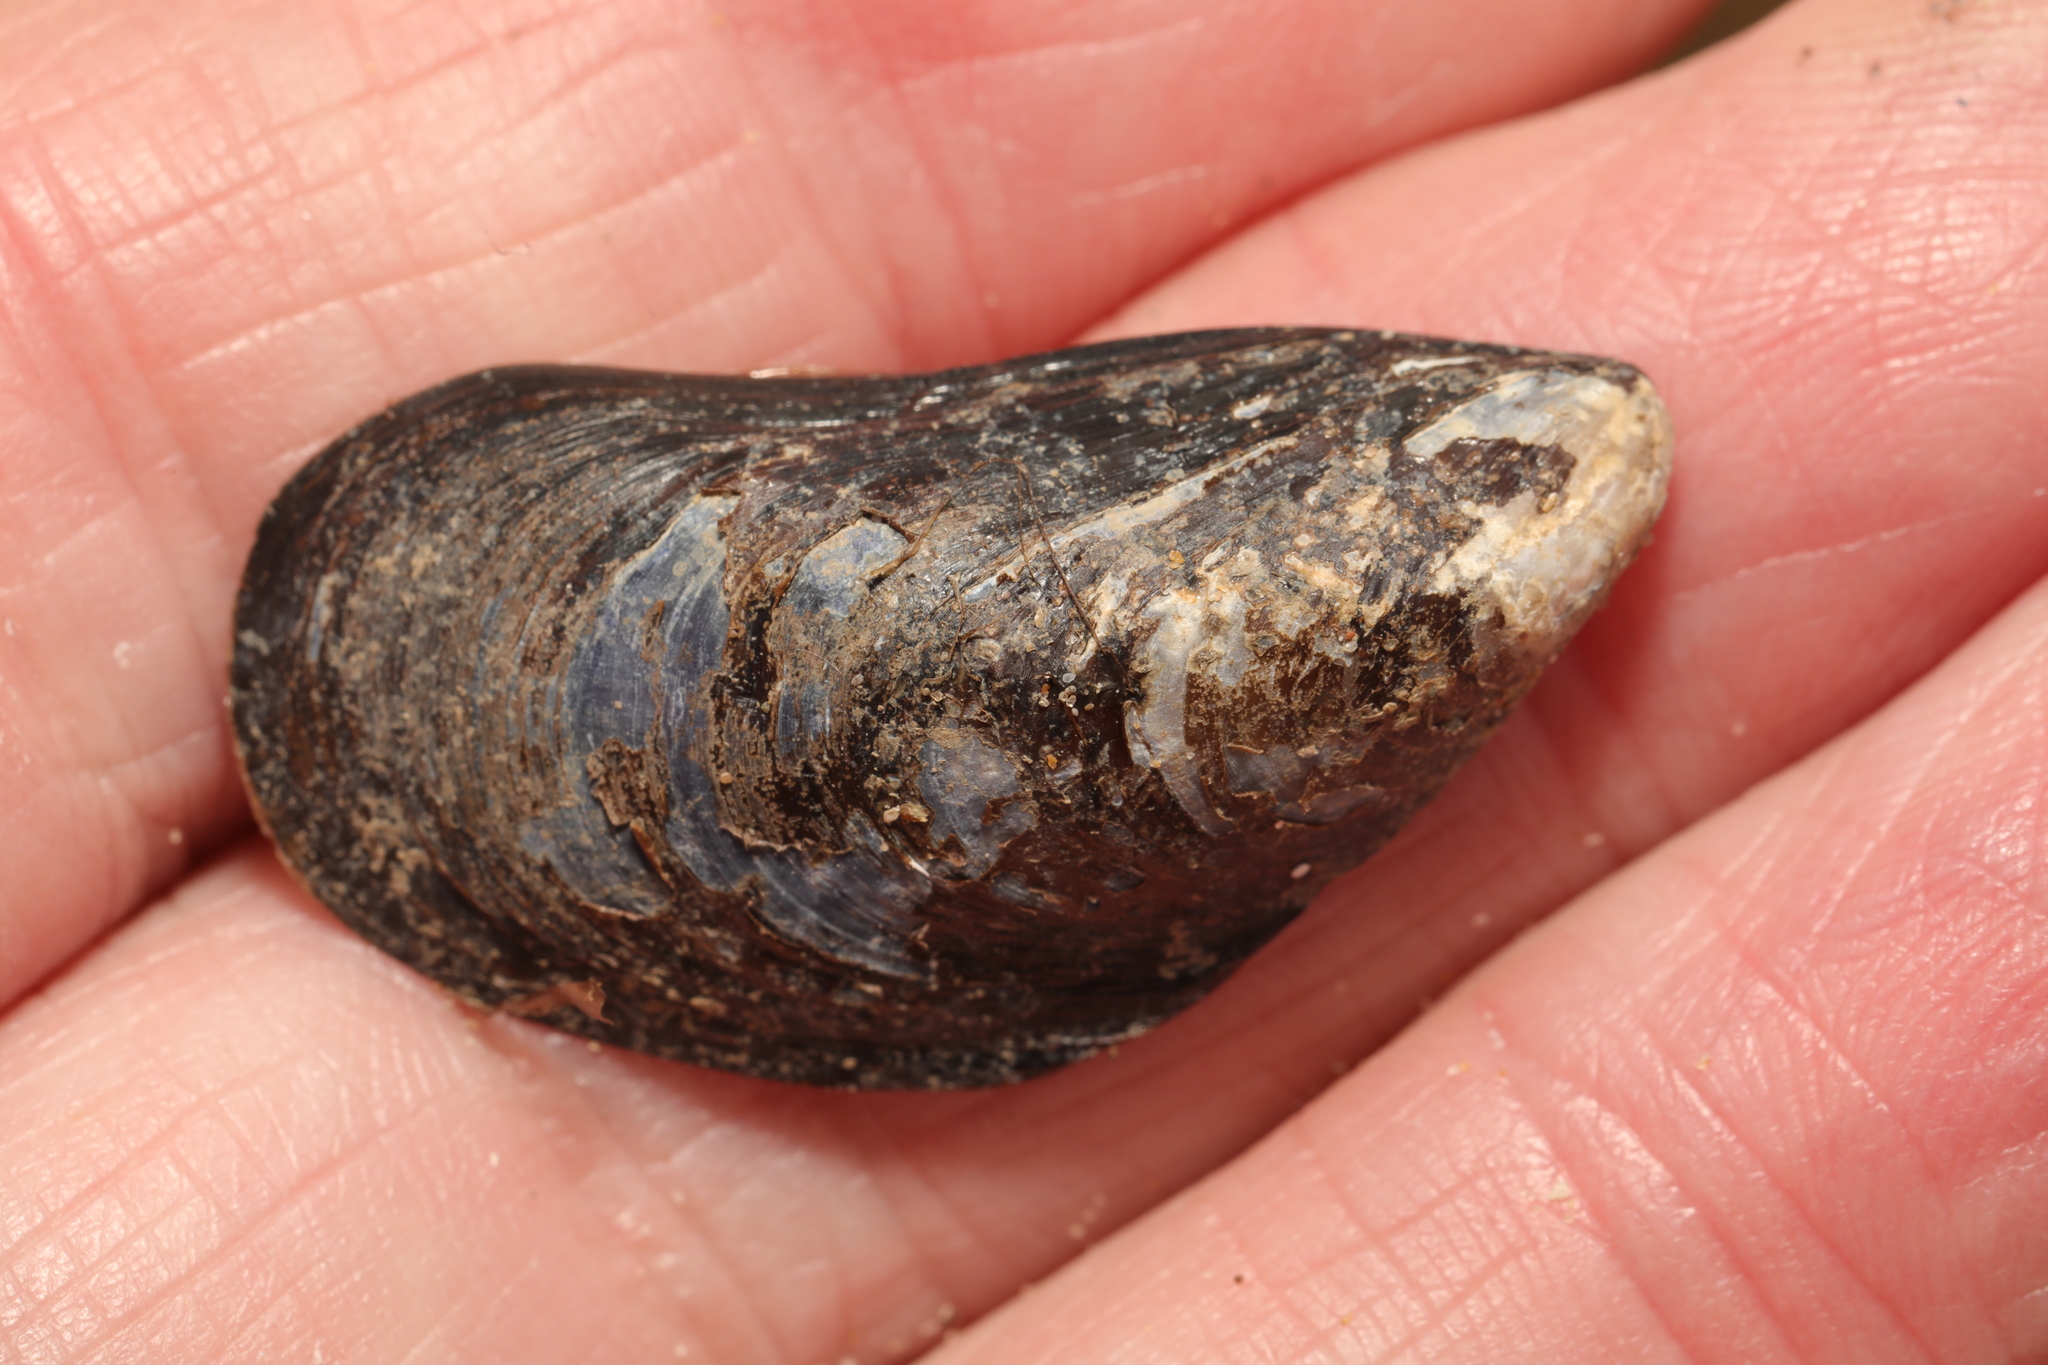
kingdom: Animalia
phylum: Mollusca
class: Bivalvia
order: Mytilida
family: Mytilidae
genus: Mytilus
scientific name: Mytilus edulis
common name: Blue mussel
